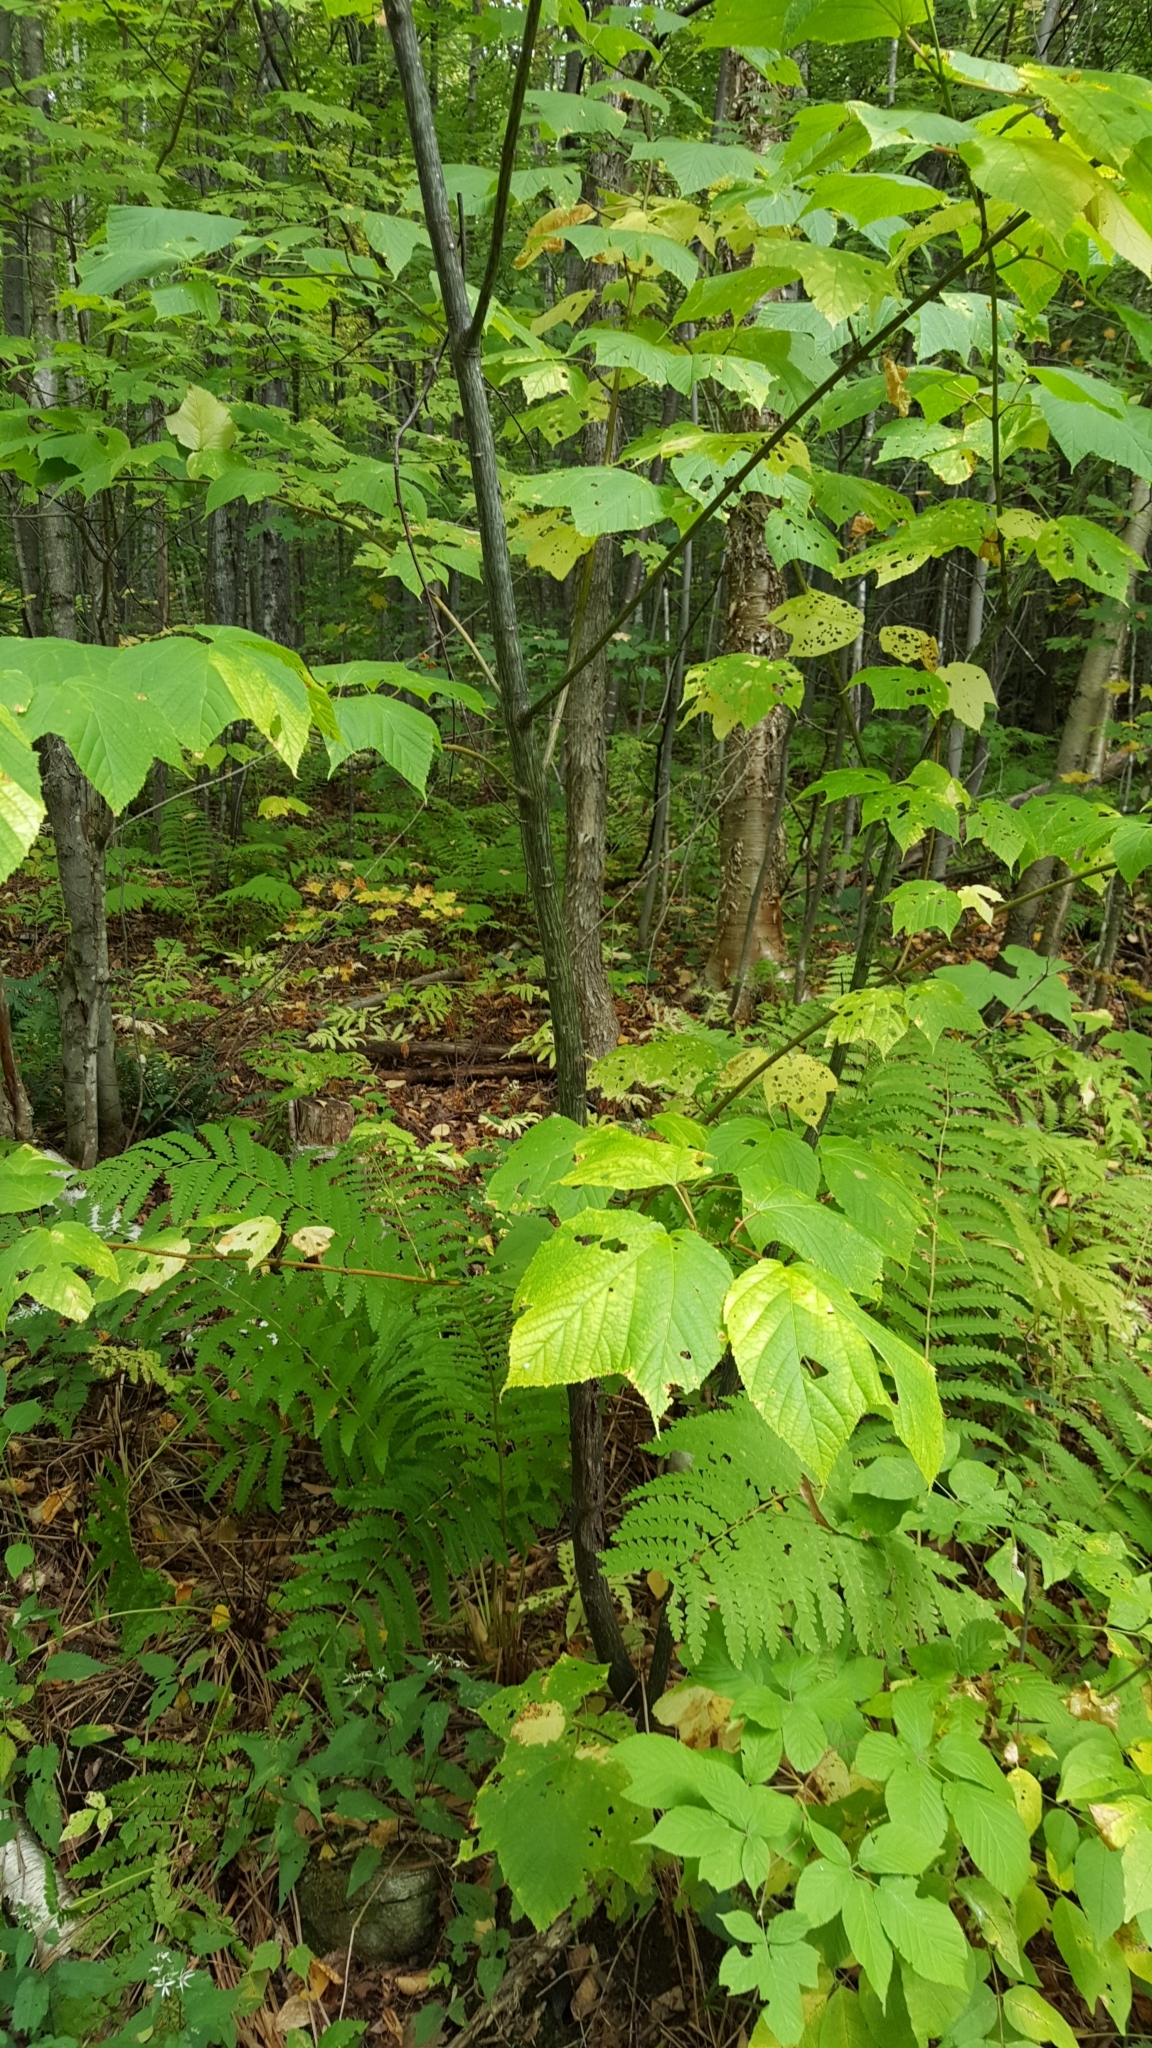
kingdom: Plantae
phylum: Tracheophyta
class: Magnoliopsida
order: Sapindales
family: Sapindaceae
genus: Acer
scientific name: Acer pensylvanicum
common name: Moosewood
